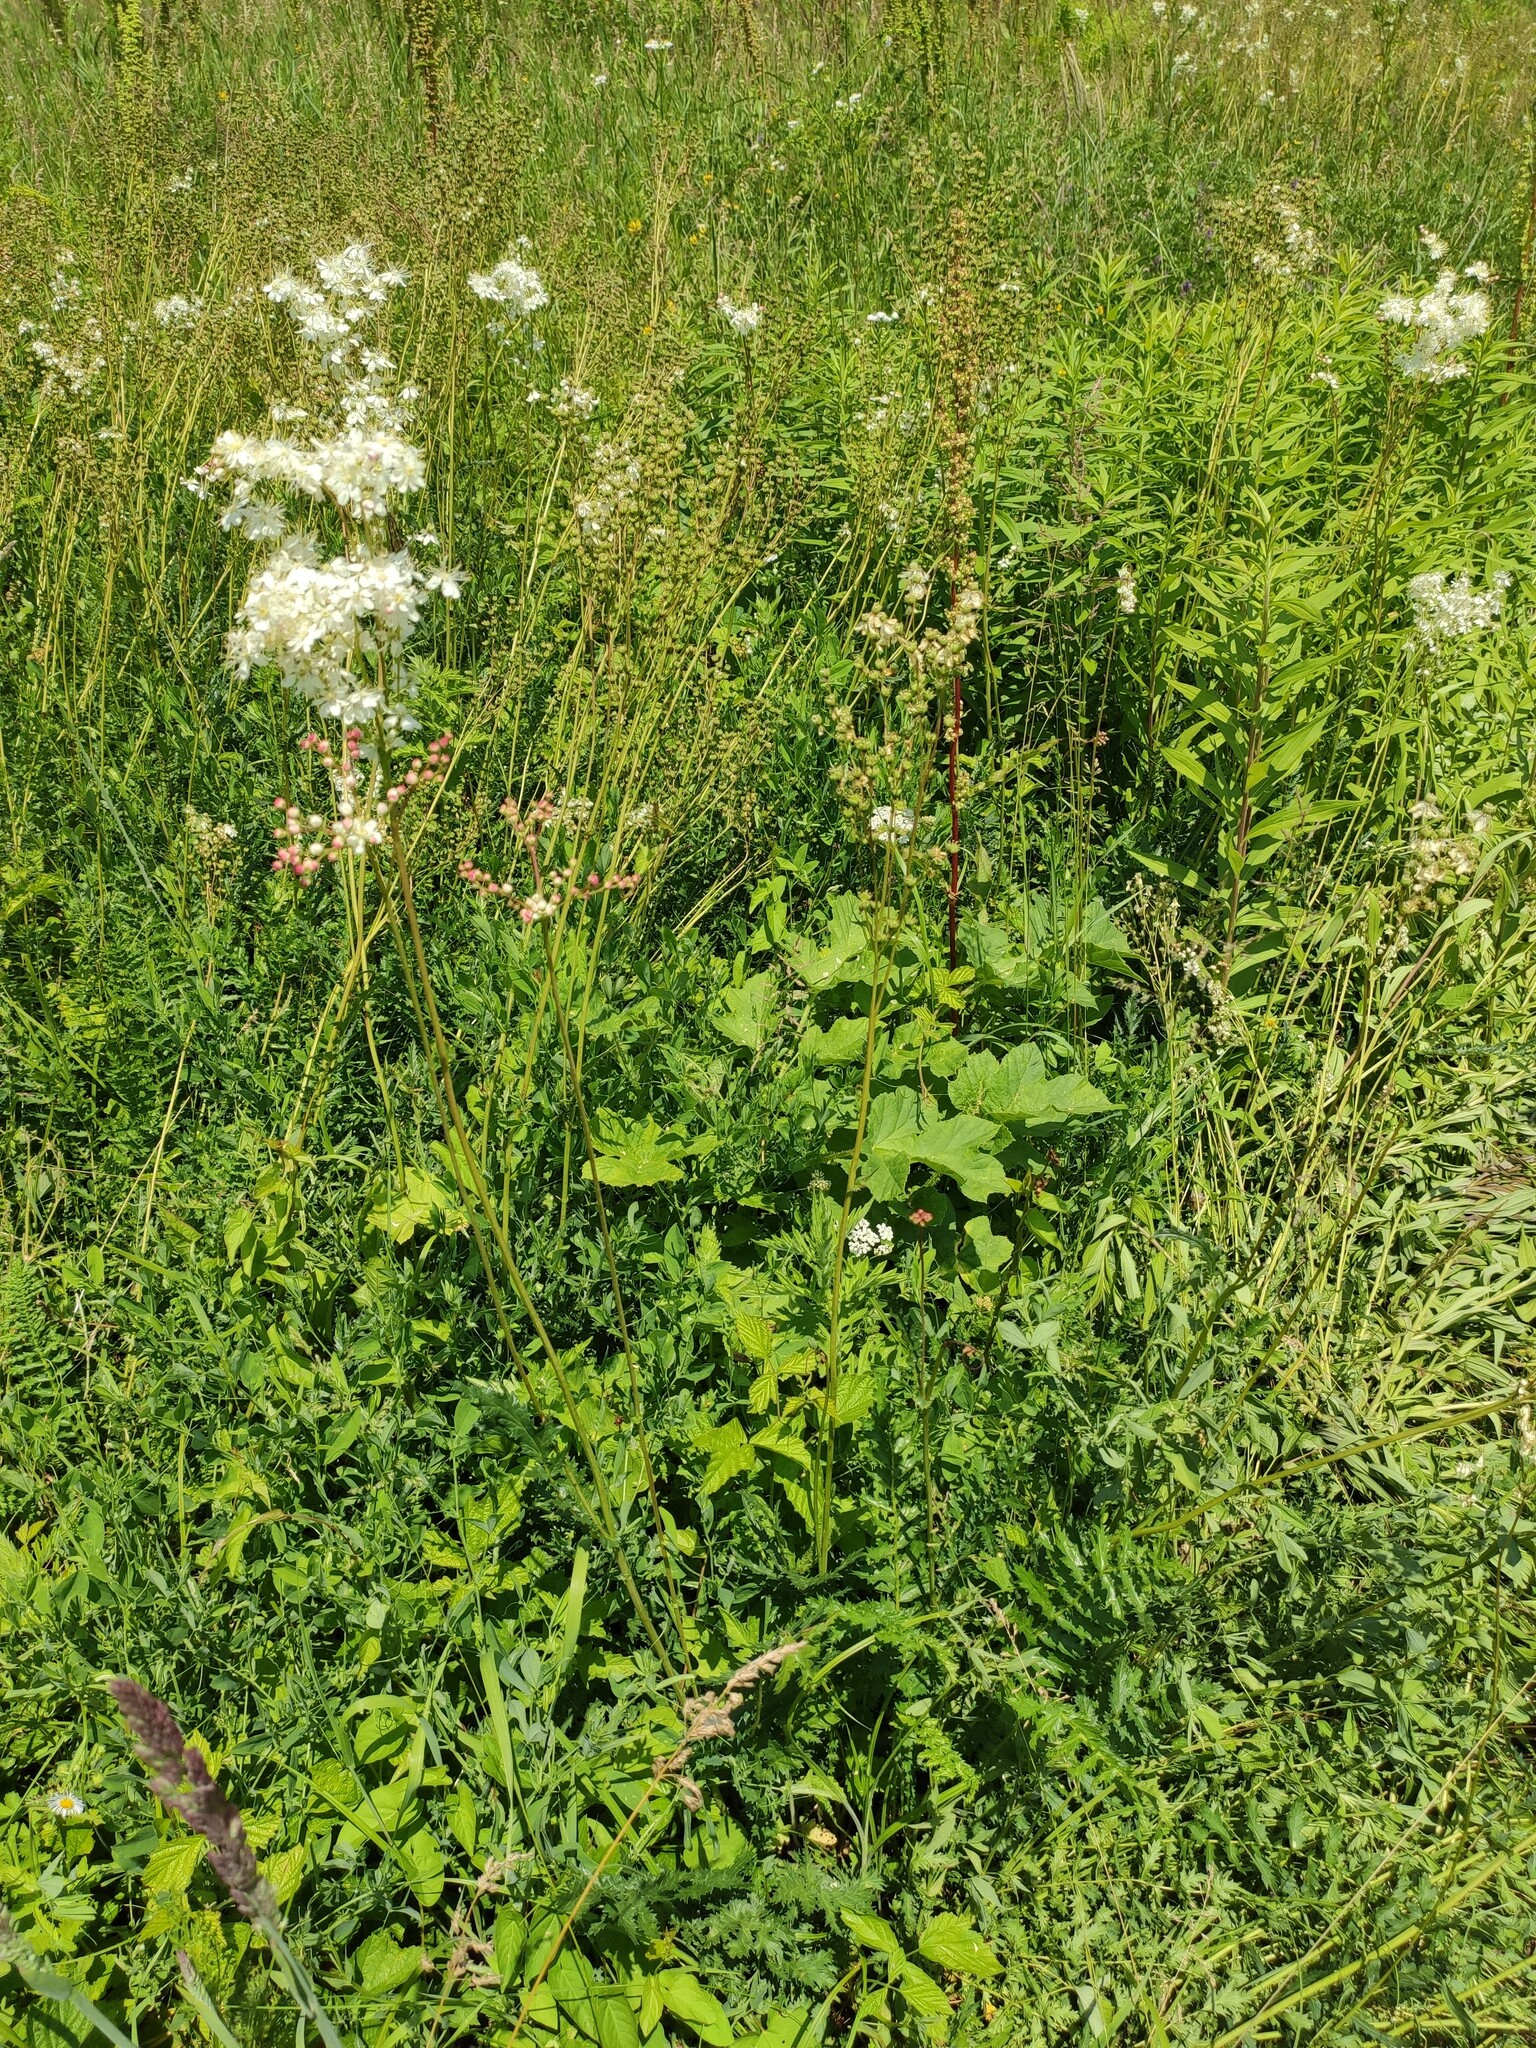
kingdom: Plantae
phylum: Tracheophyta
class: Magnoliopsida
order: Rosales
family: Rosaceae
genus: Filipendula
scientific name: Filipendula vulgaris
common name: Dropwort
